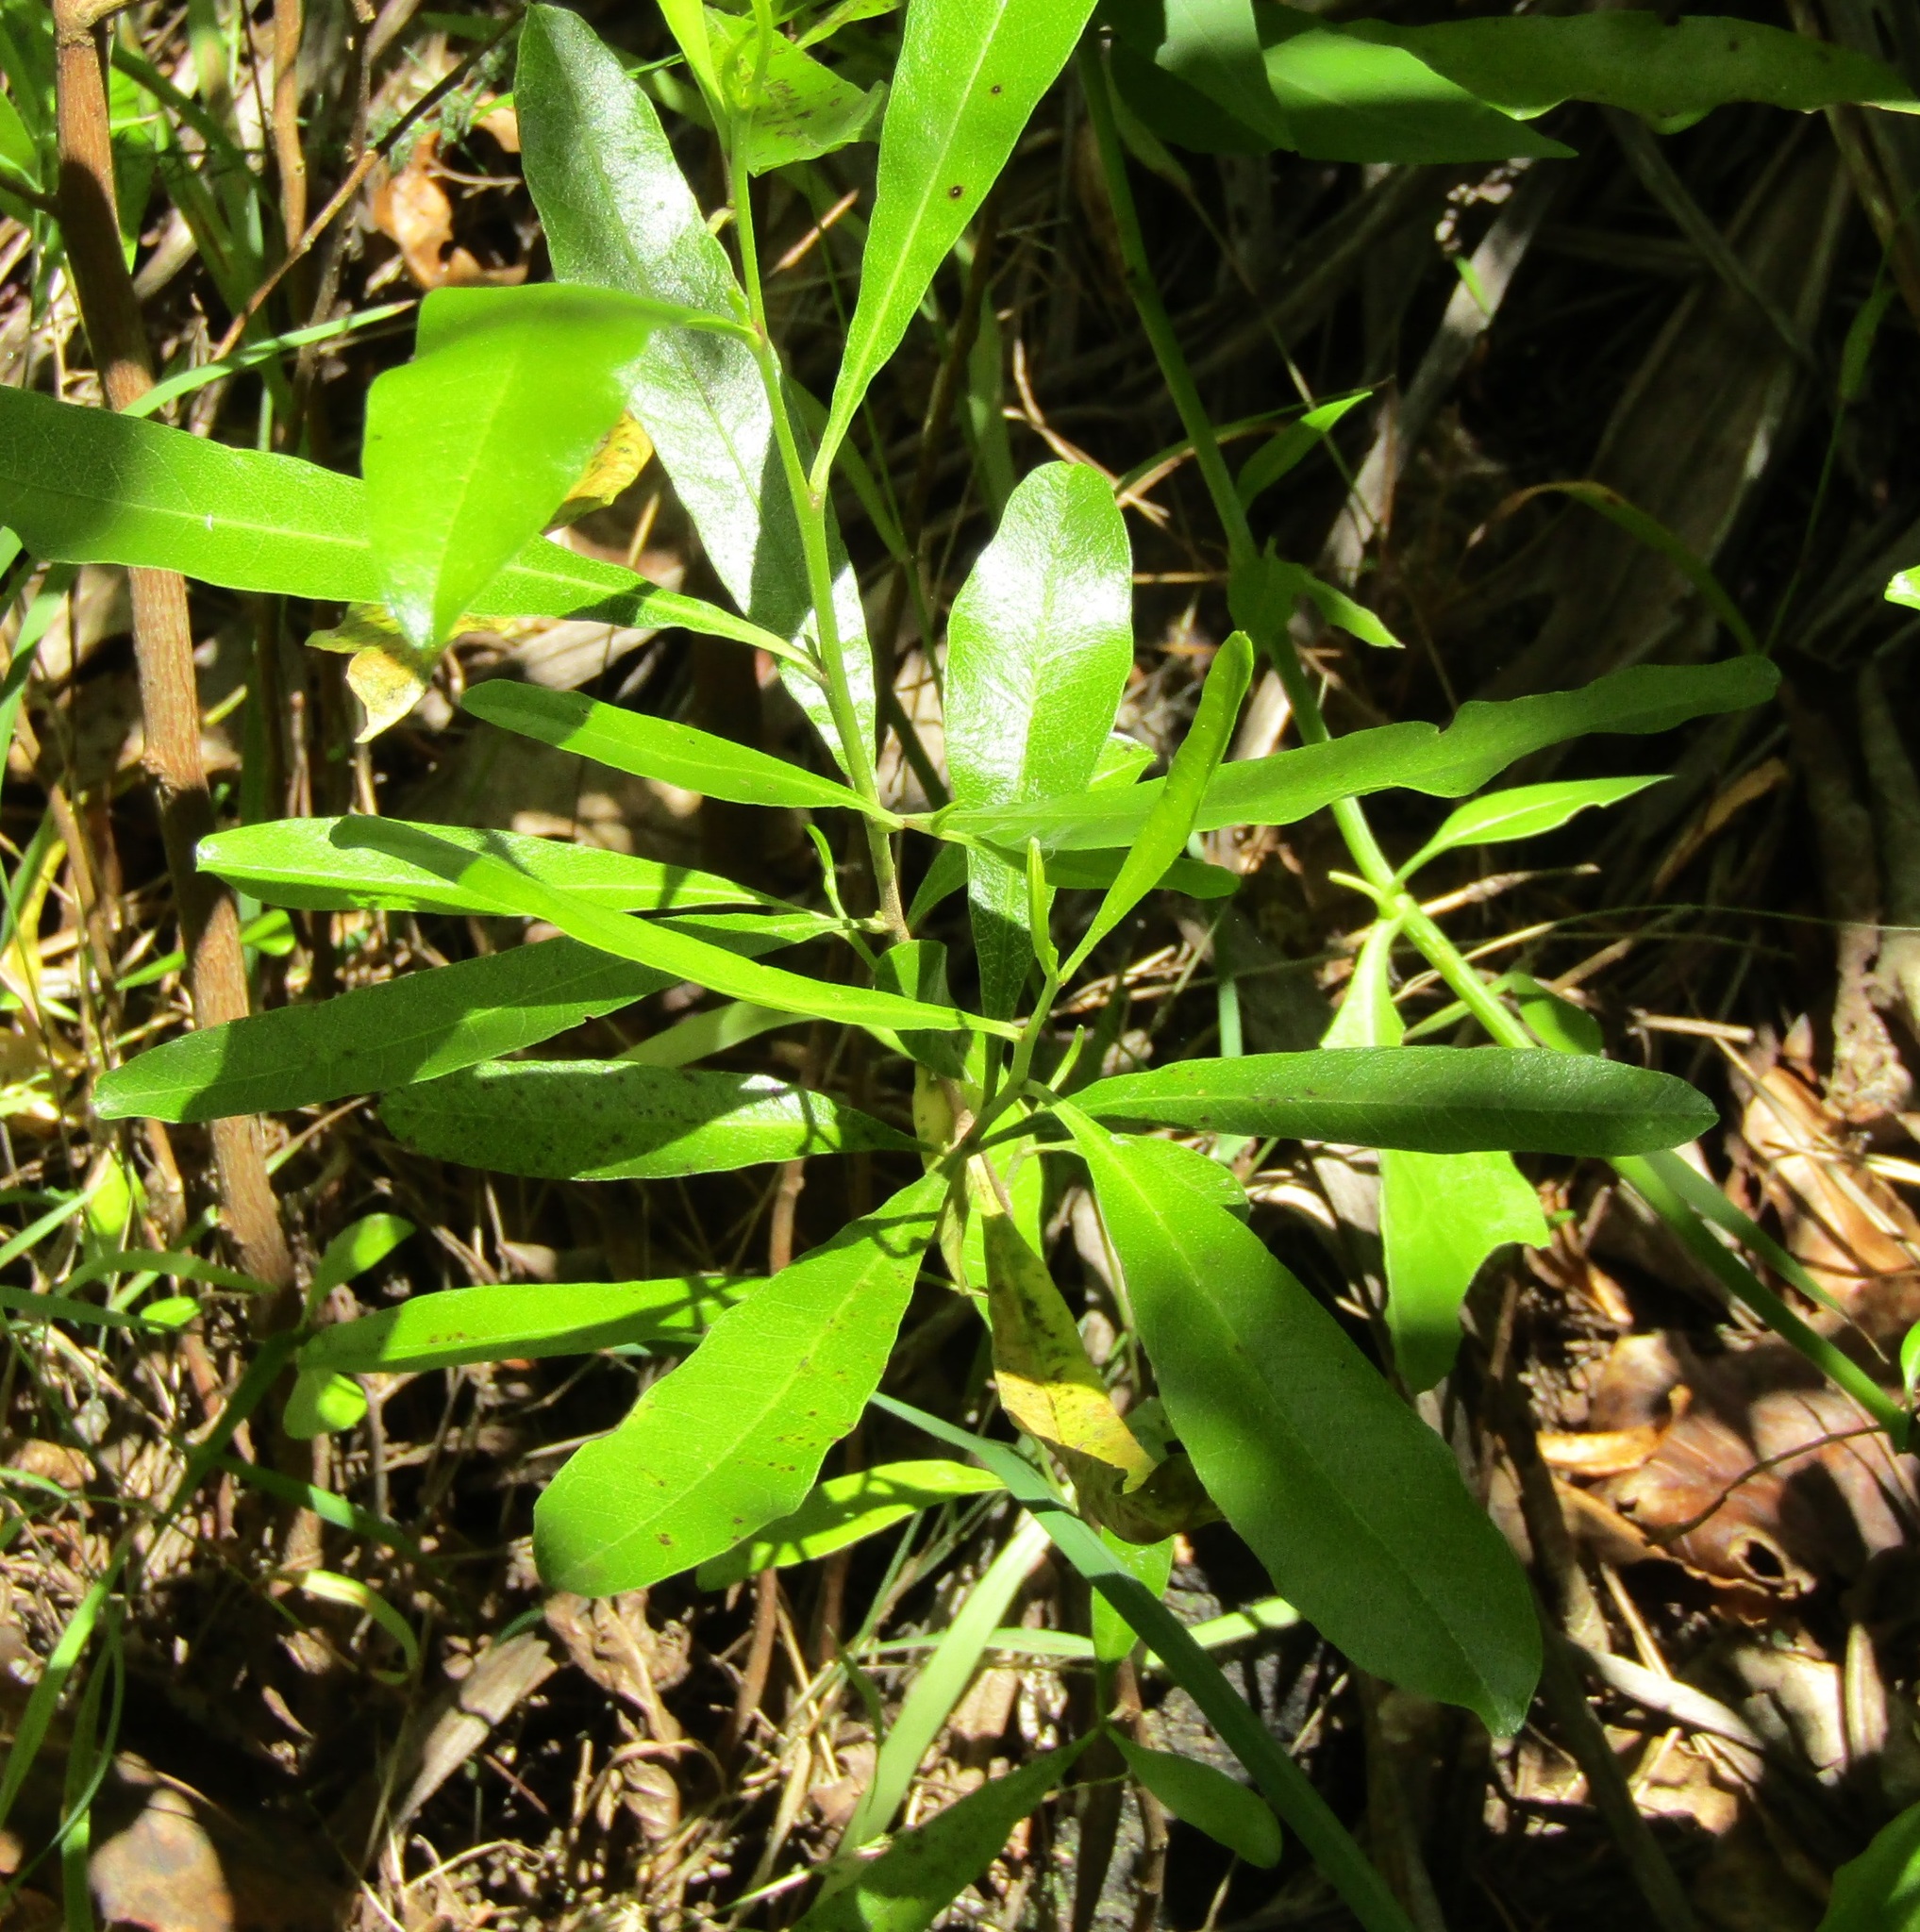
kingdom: Plantae
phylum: Tracheophyta
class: Magnoliopsida
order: Sapindales
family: Sapindaceae
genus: Dodonaea
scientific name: Dodonaea viscosa
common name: Hopbush
